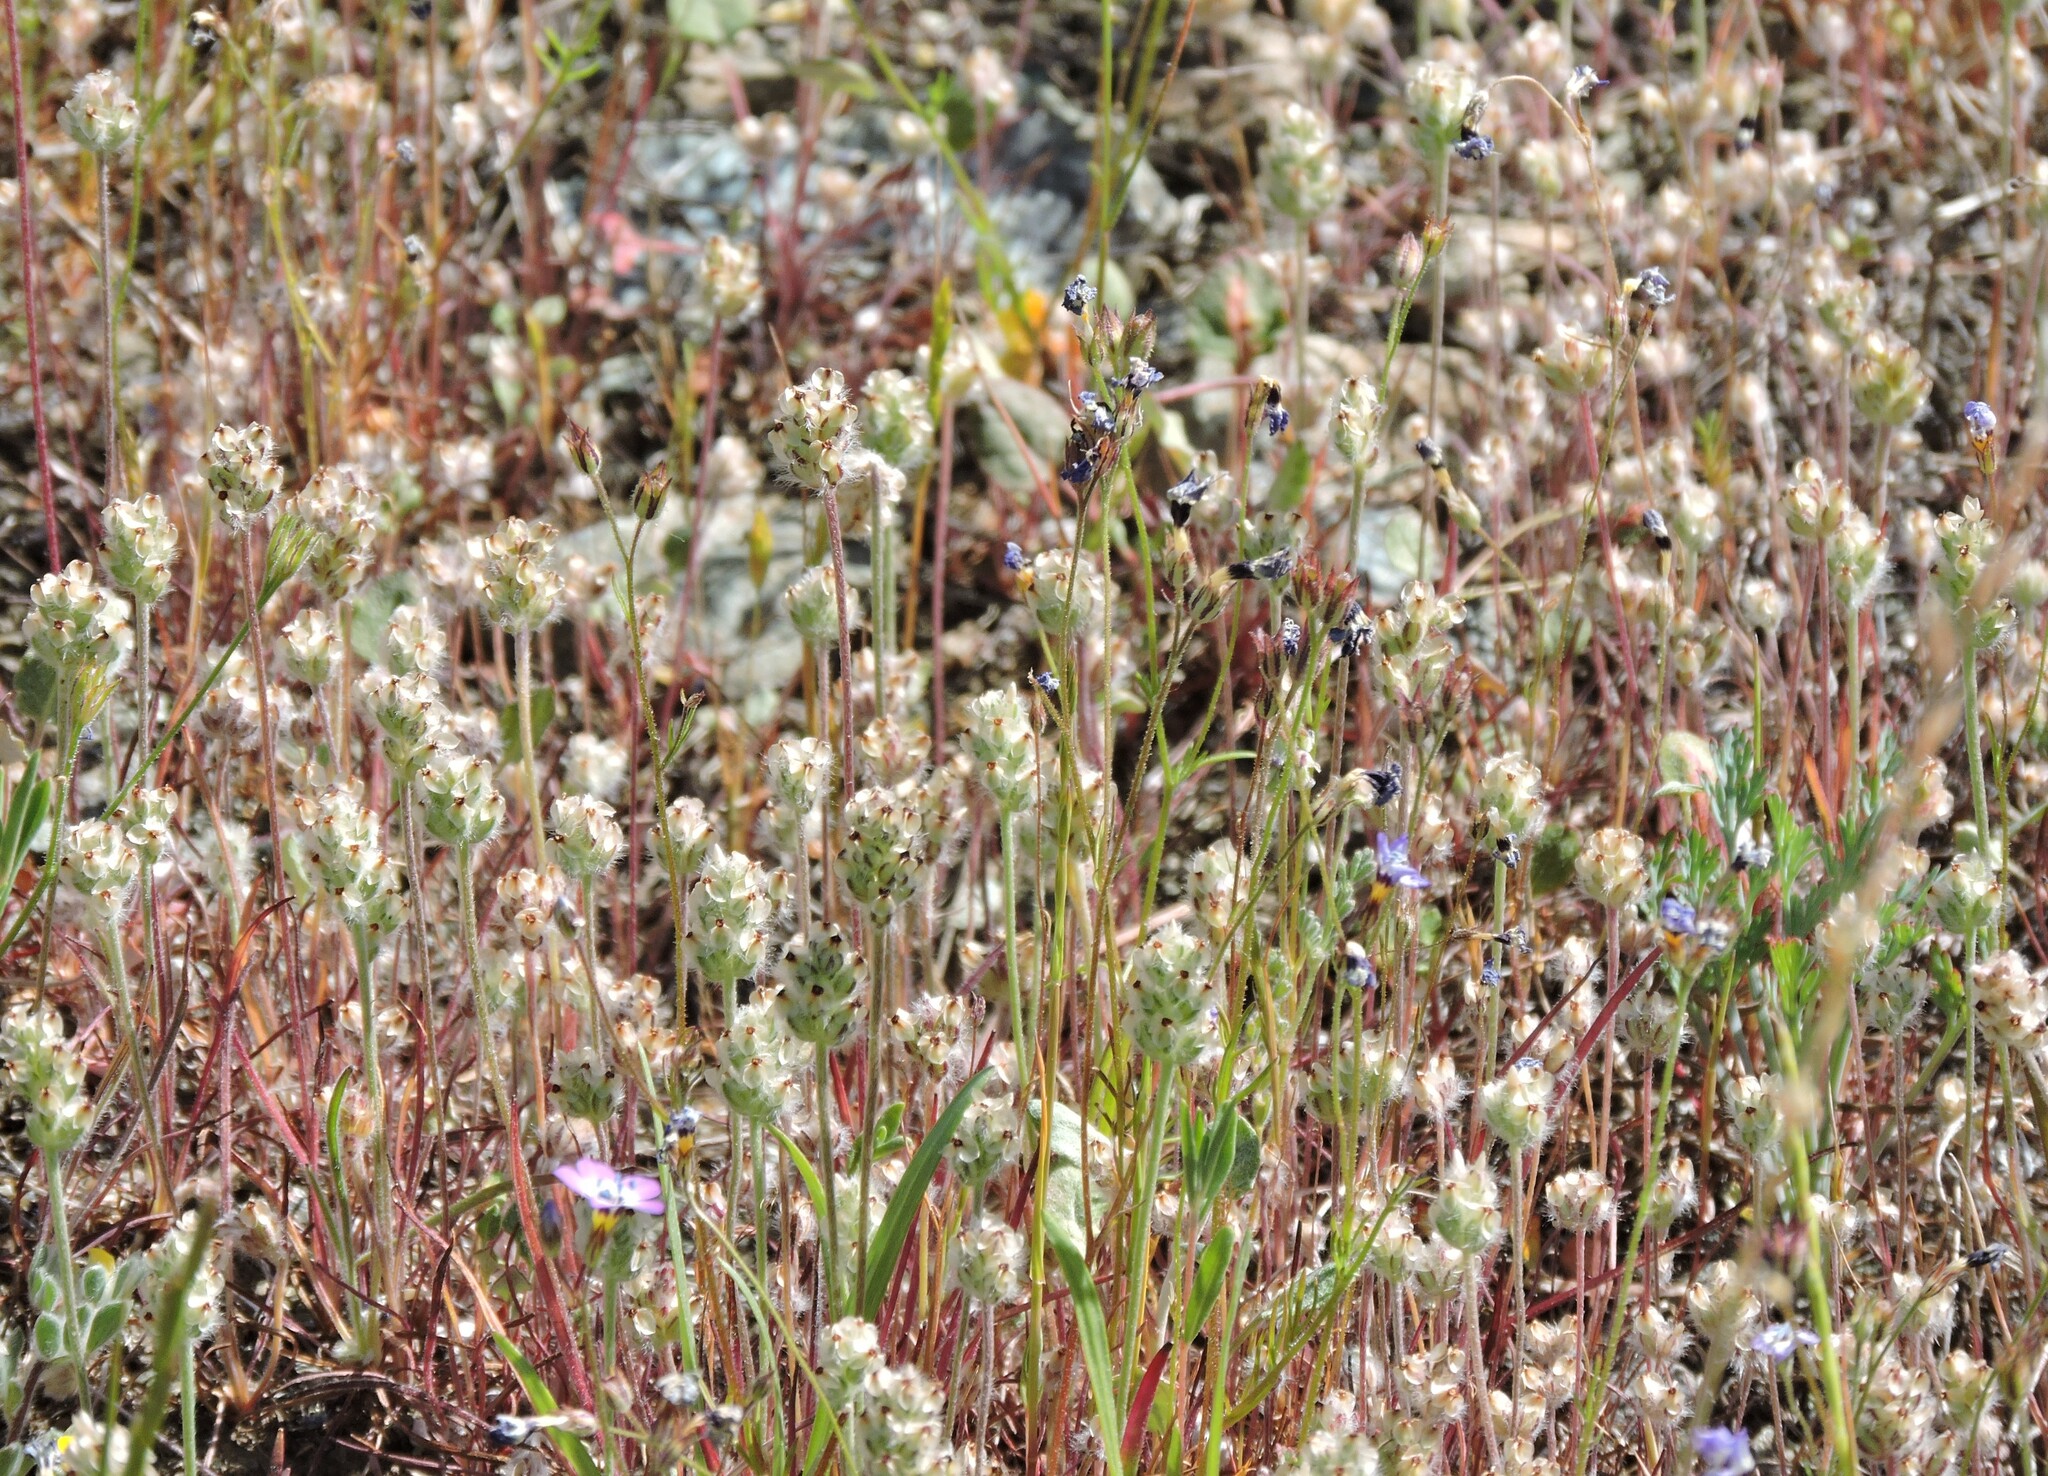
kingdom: Plantae
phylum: Tracheophyta
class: Magnoliopsida
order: Lamiales
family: Plantaginaceae
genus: Plantago
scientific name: Plantago erecta
